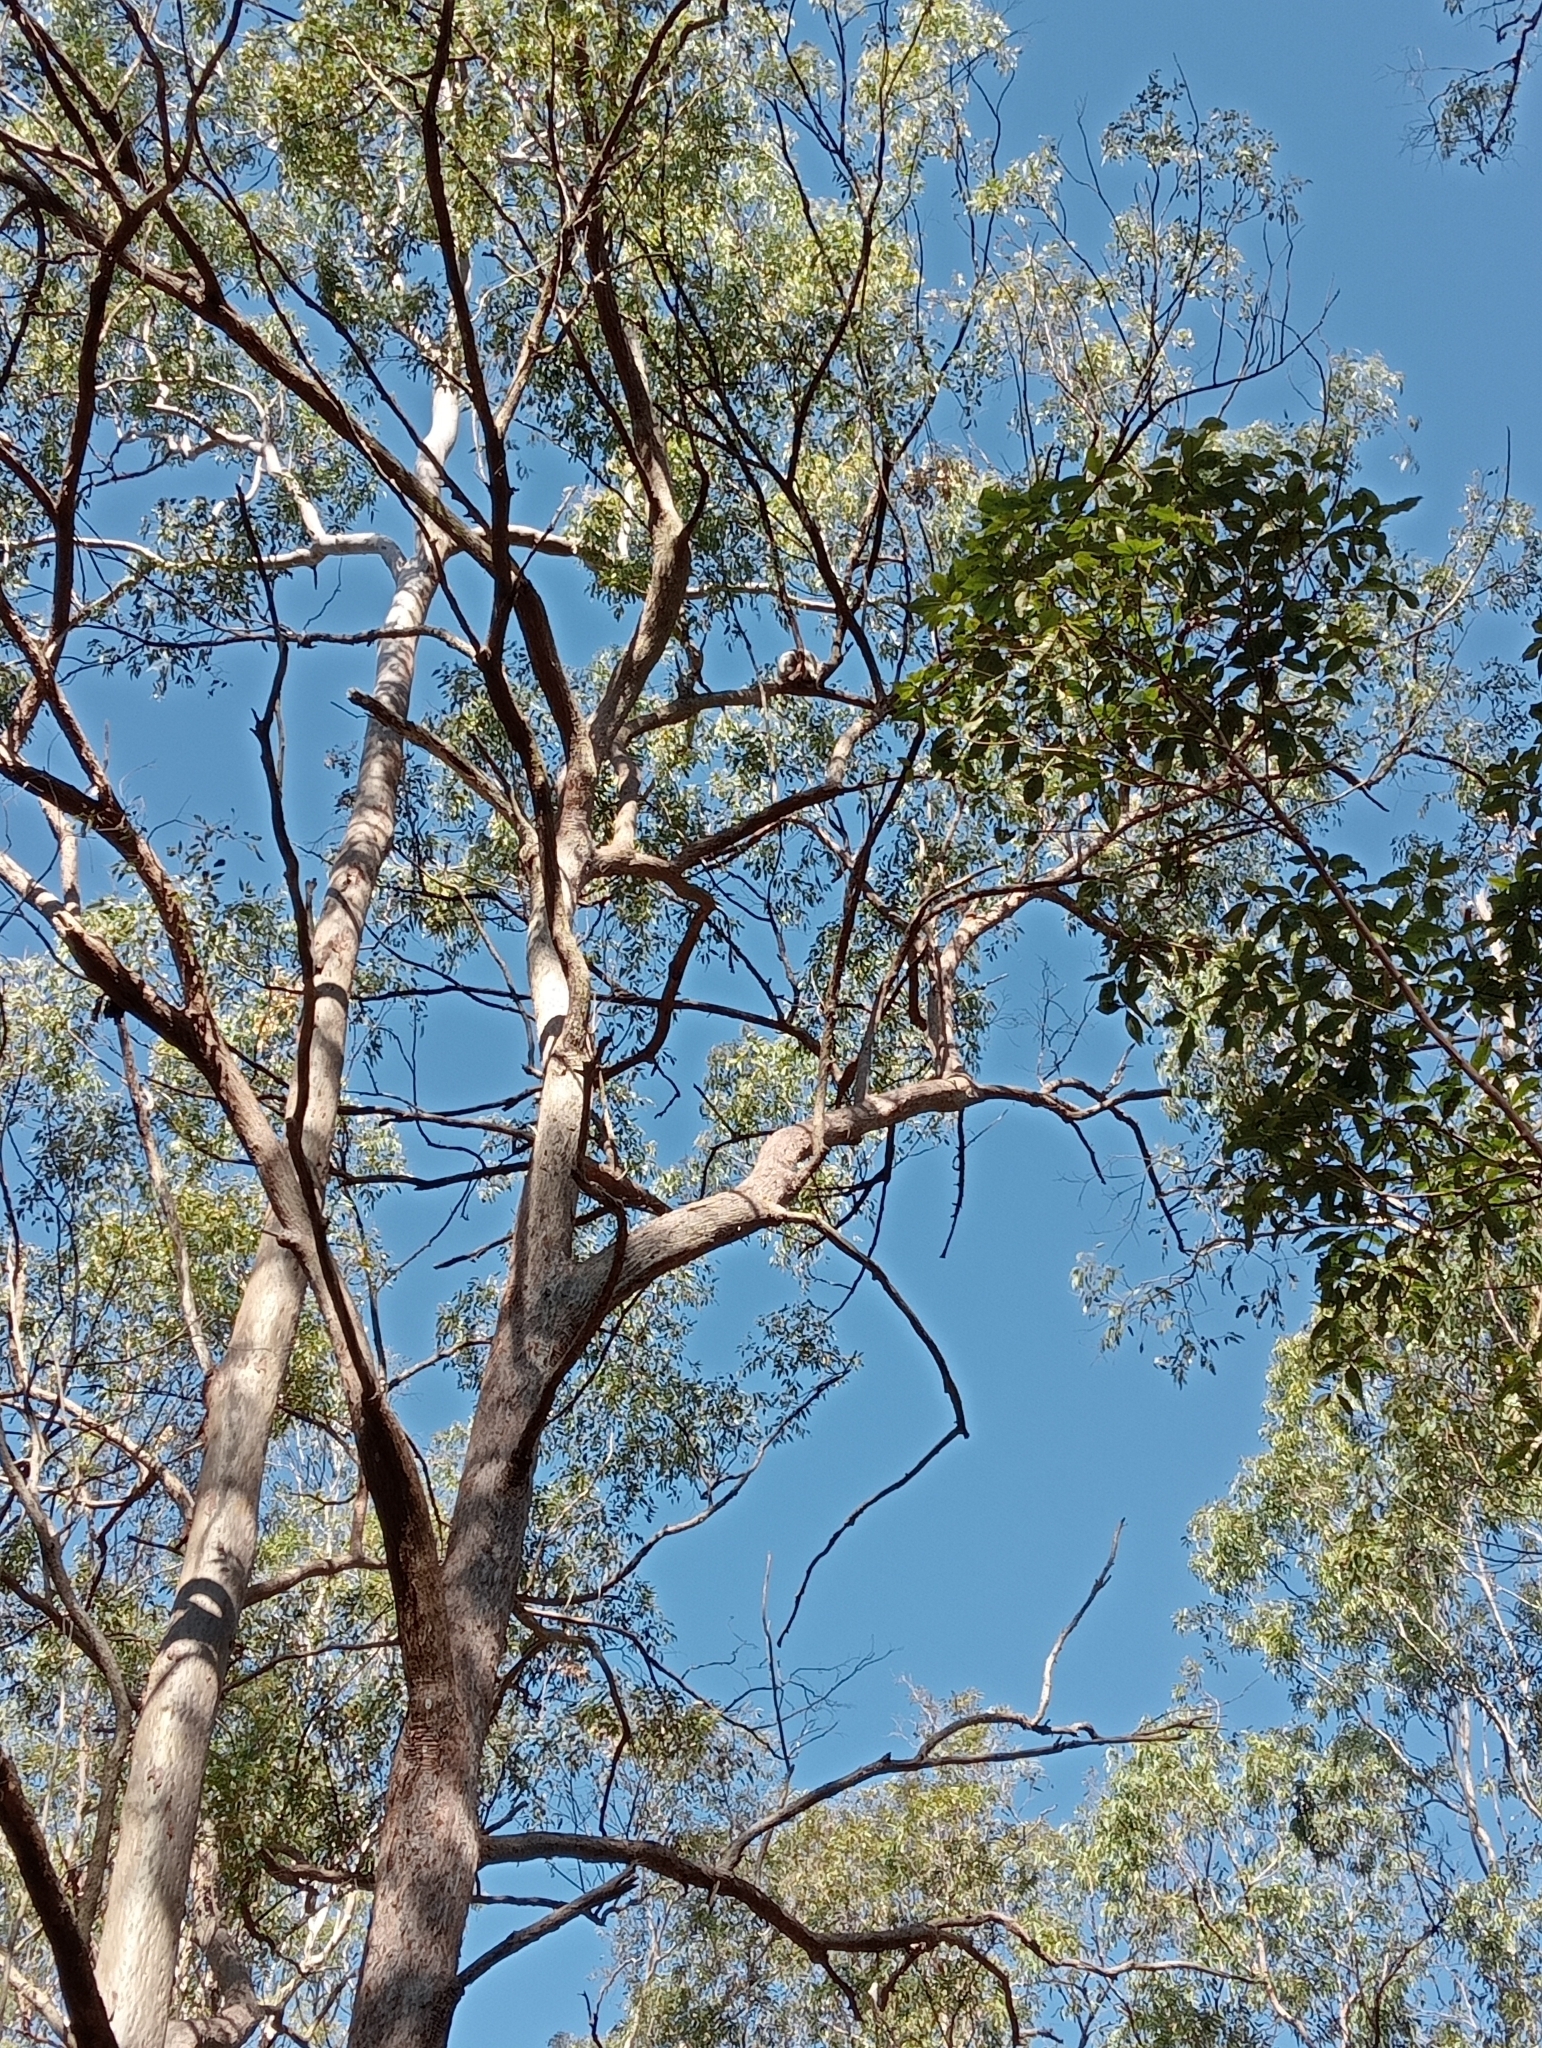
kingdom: Animalia
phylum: Chordata
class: Mammalia
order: Diprotodontia
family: Phascolarctidae
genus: Phascolarctos
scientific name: Phascolarctos cinereus
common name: Koala
